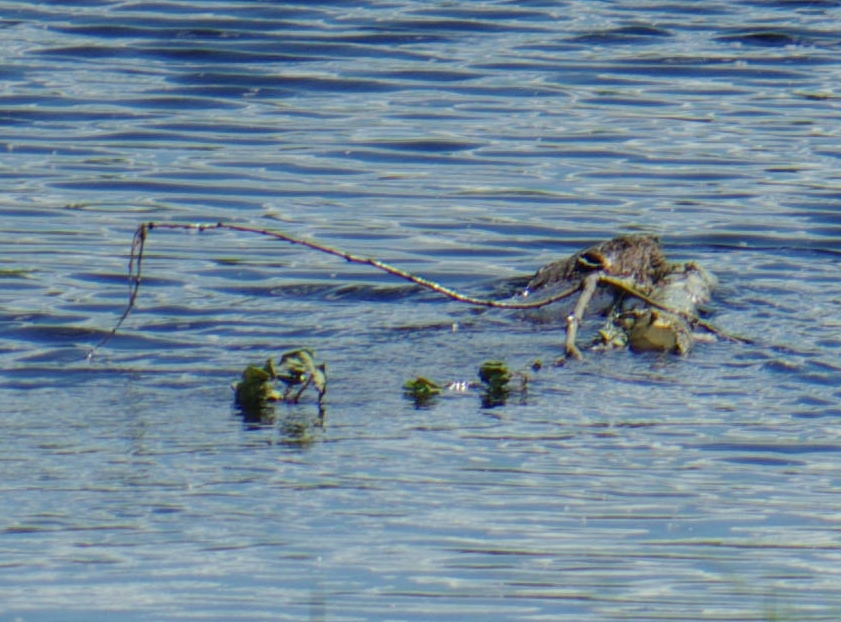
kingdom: Animalia
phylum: Chordata
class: Mammalia
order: Rodentia
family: Castoridae
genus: Castor
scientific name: Castor canadensis
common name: American beaver
